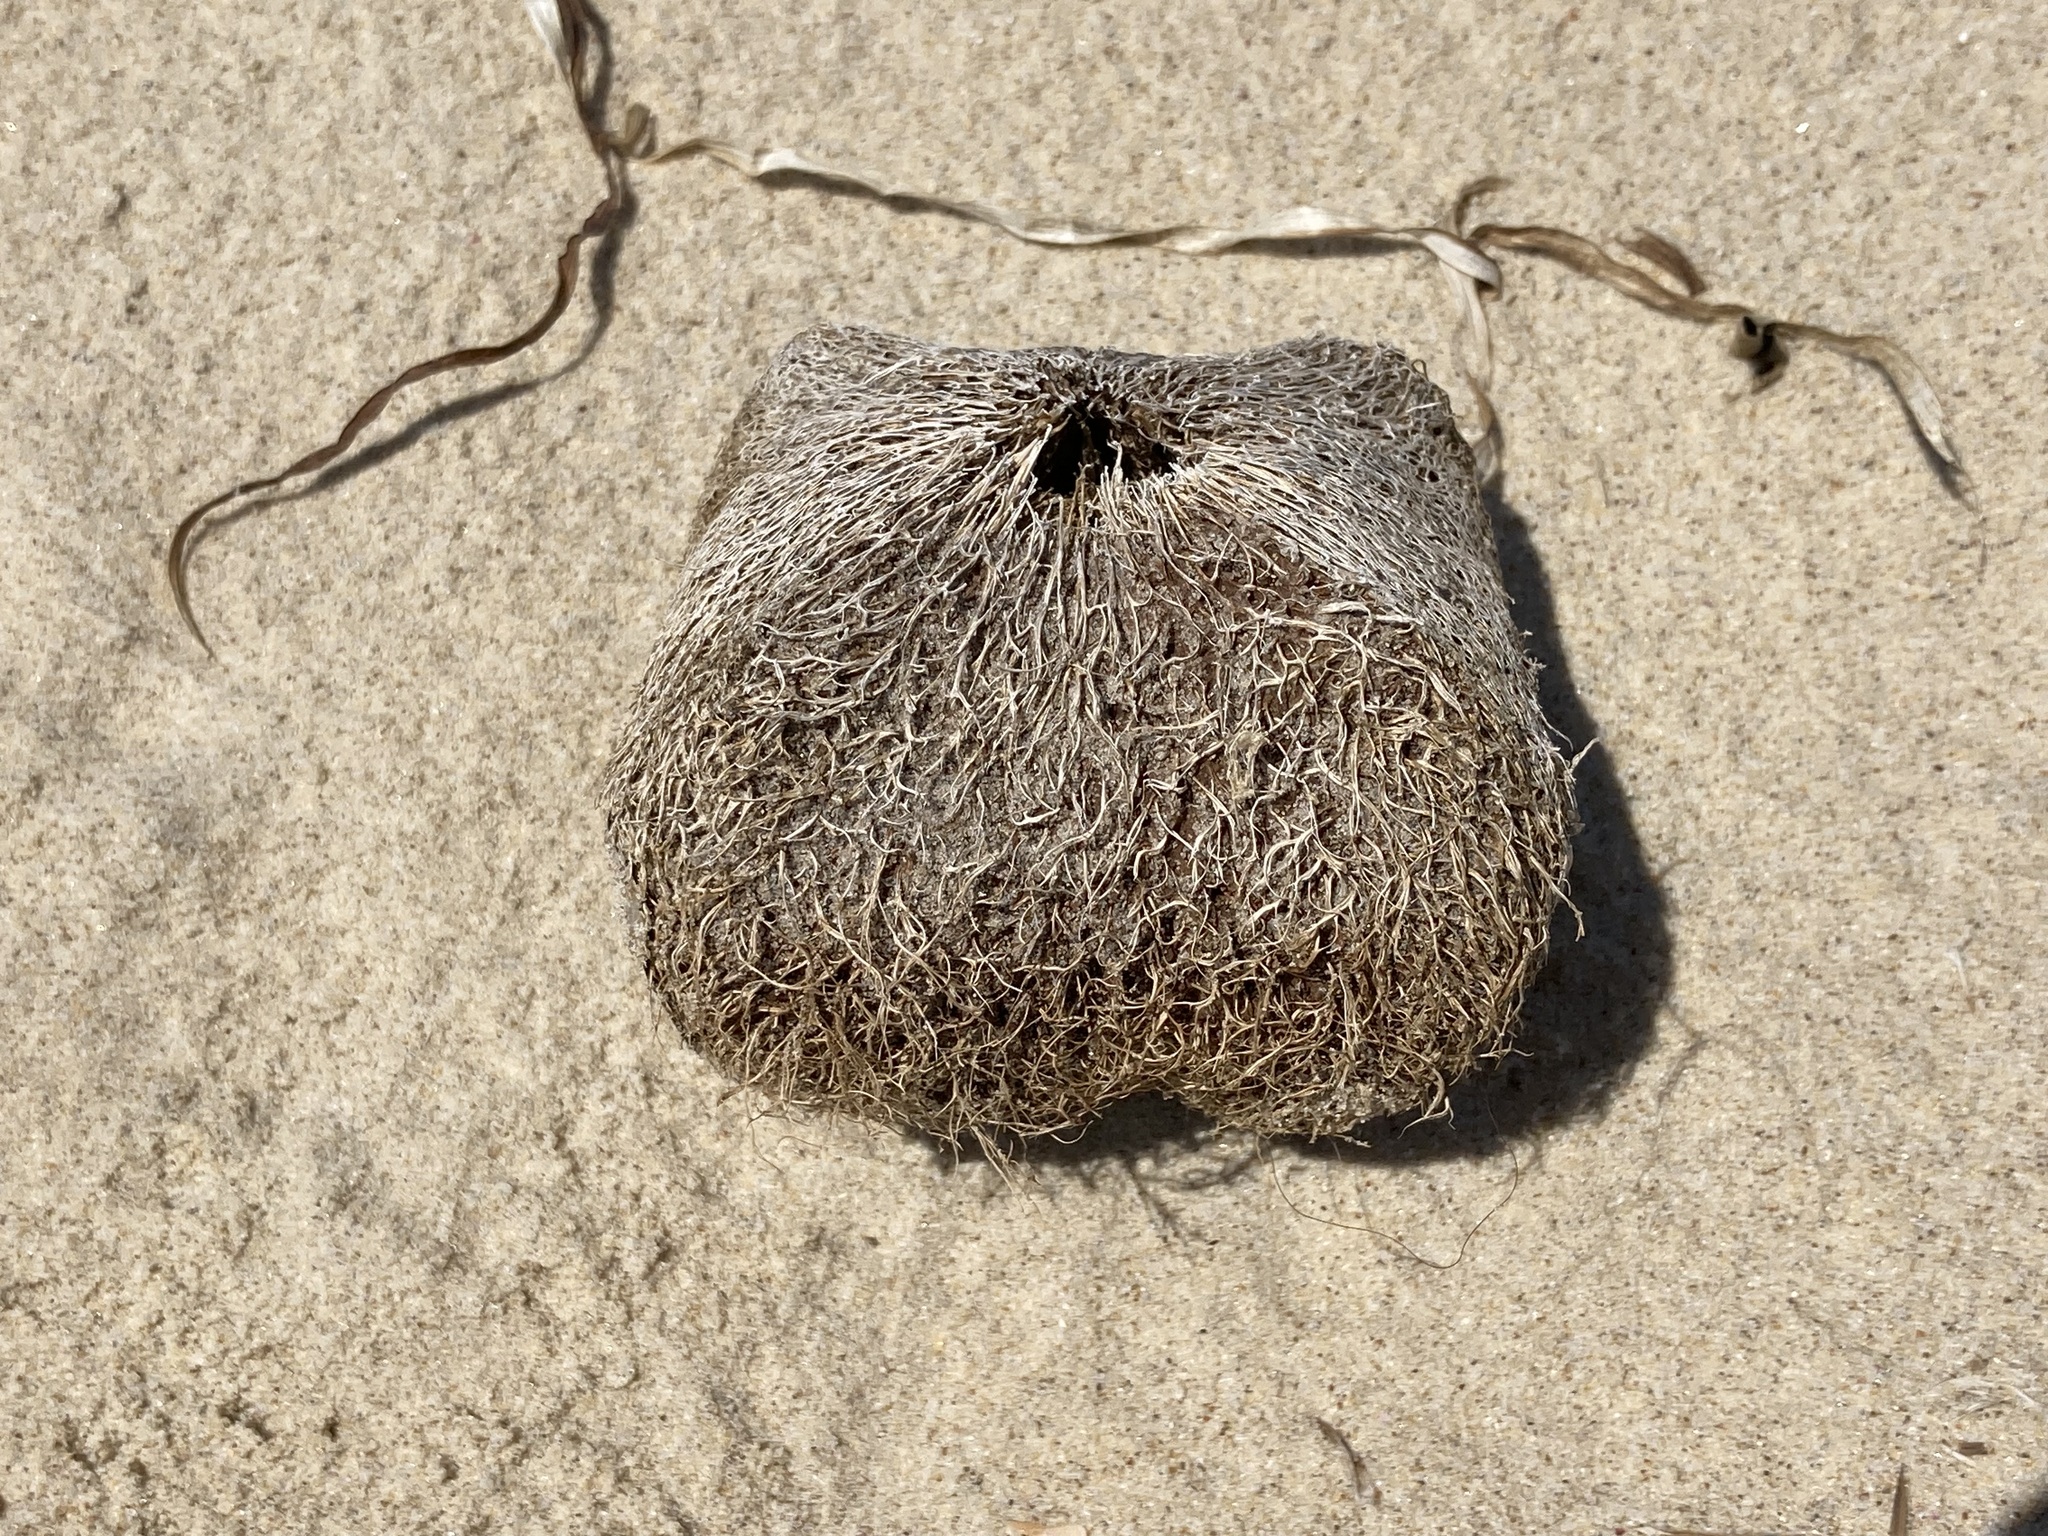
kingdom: Plantae
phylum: Tracheophyta
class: Magnoliopsida
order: Ericales
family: Lecythidaceae
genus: Barringtonia
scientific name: Barringtonia asiatica
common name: Mango-pine
